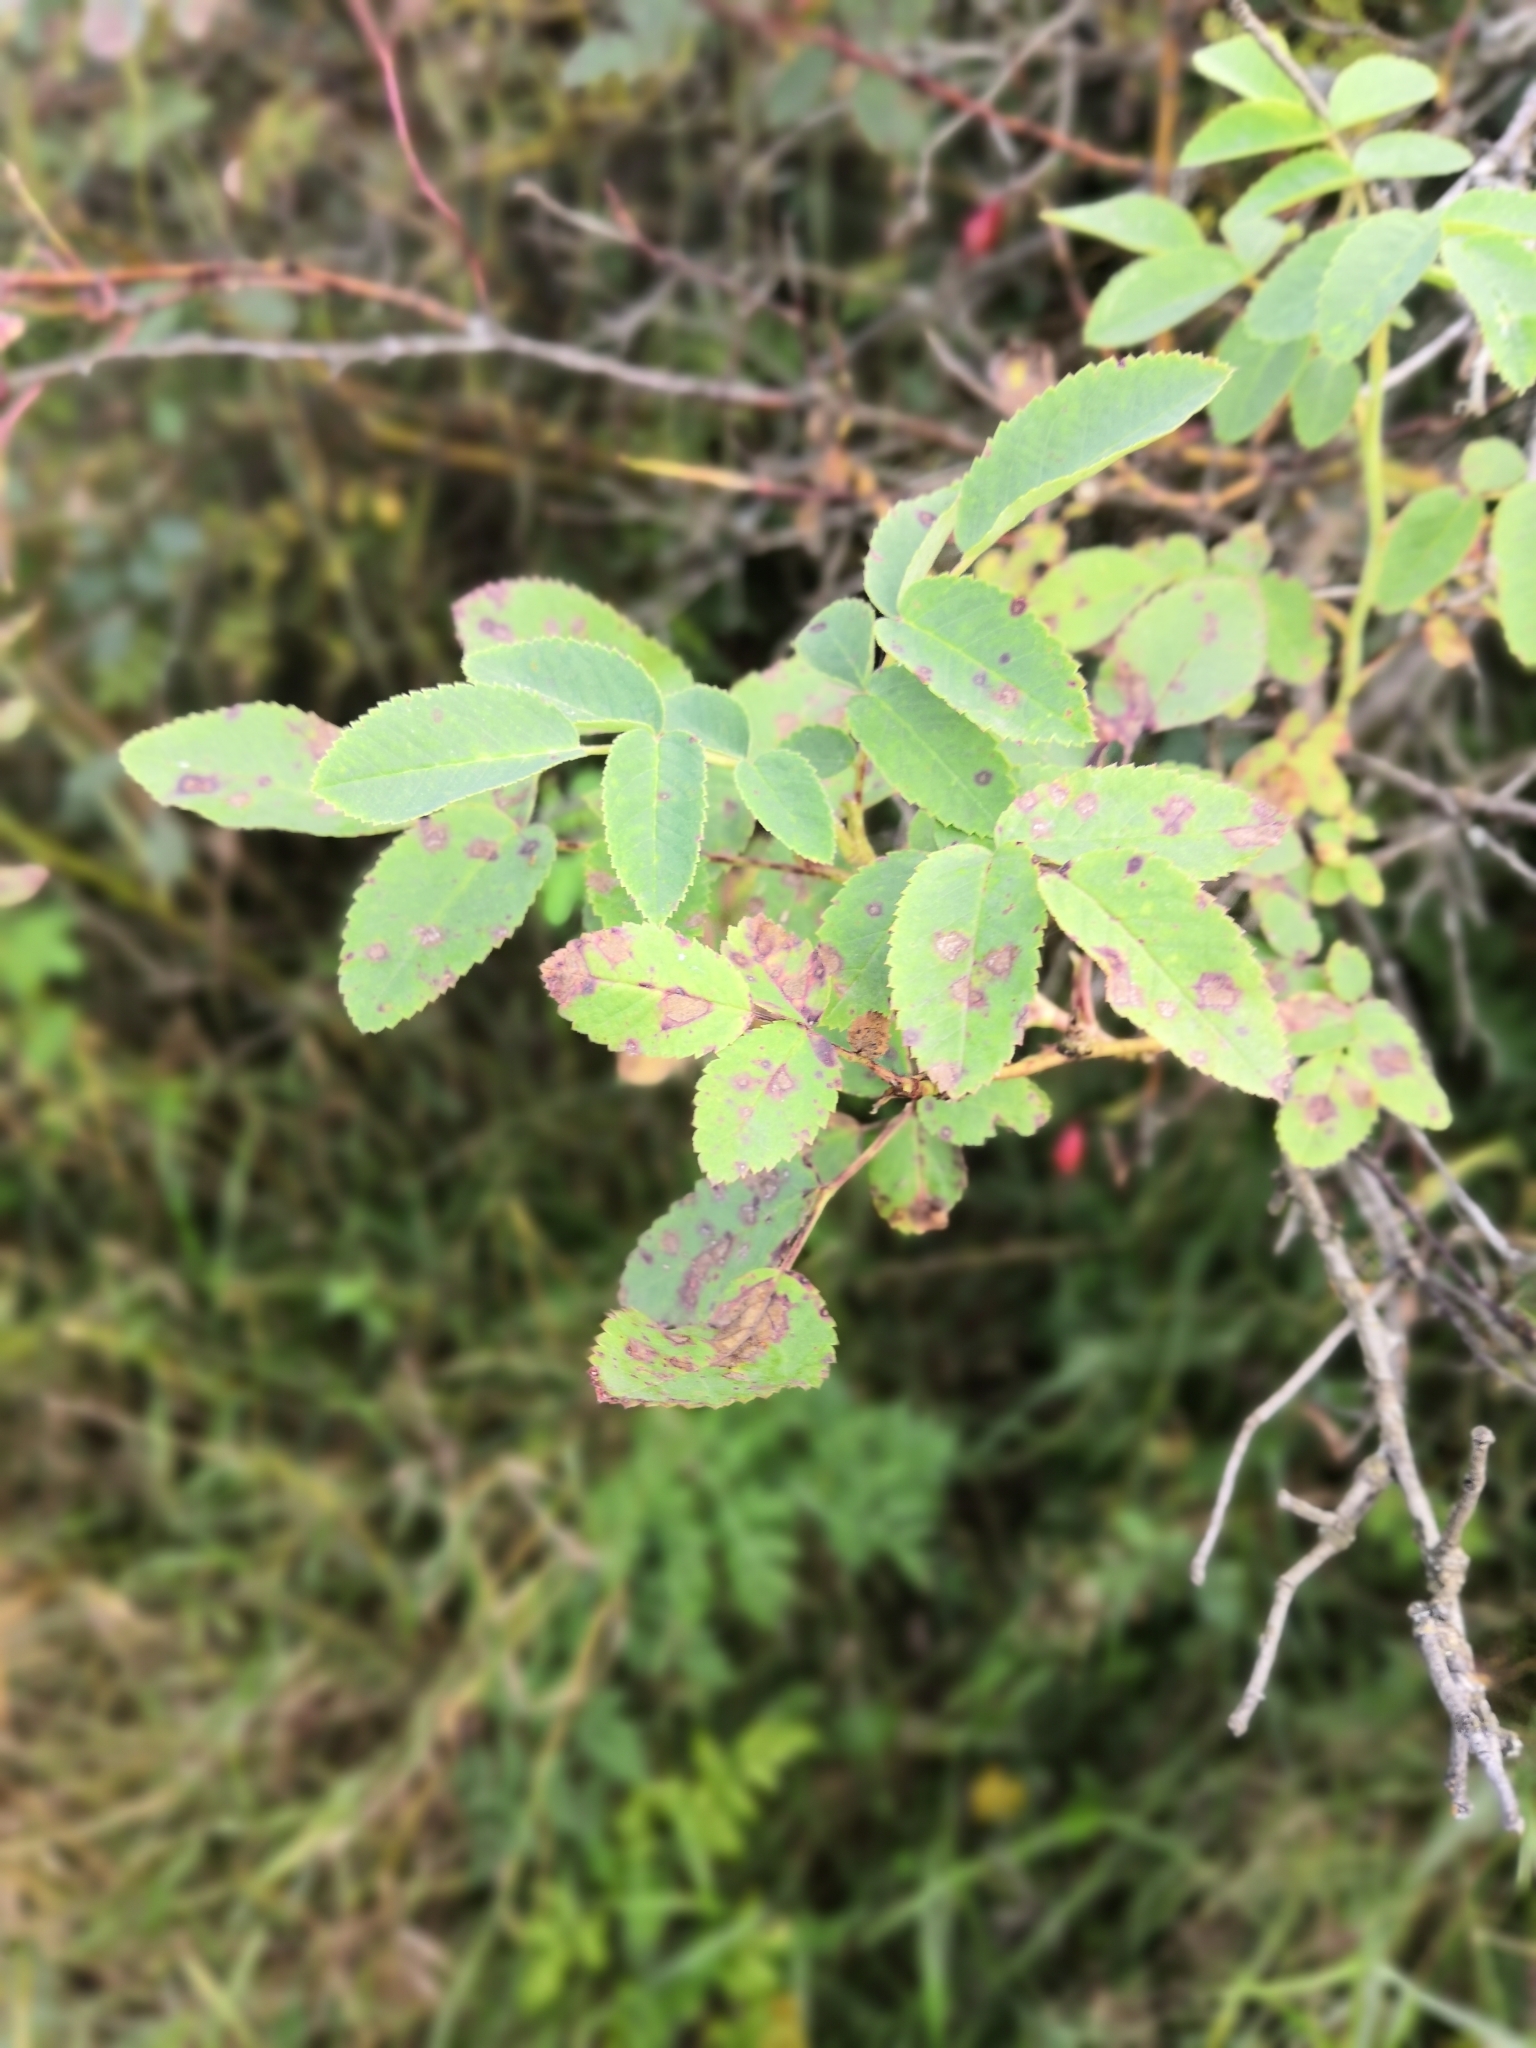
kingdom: Plantae
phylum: Tracheophyta
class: Magnoliopsida
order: Rosales
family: Rosaceae
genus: Rosa
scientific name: Rosa majalis
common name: Cinnamon rose
